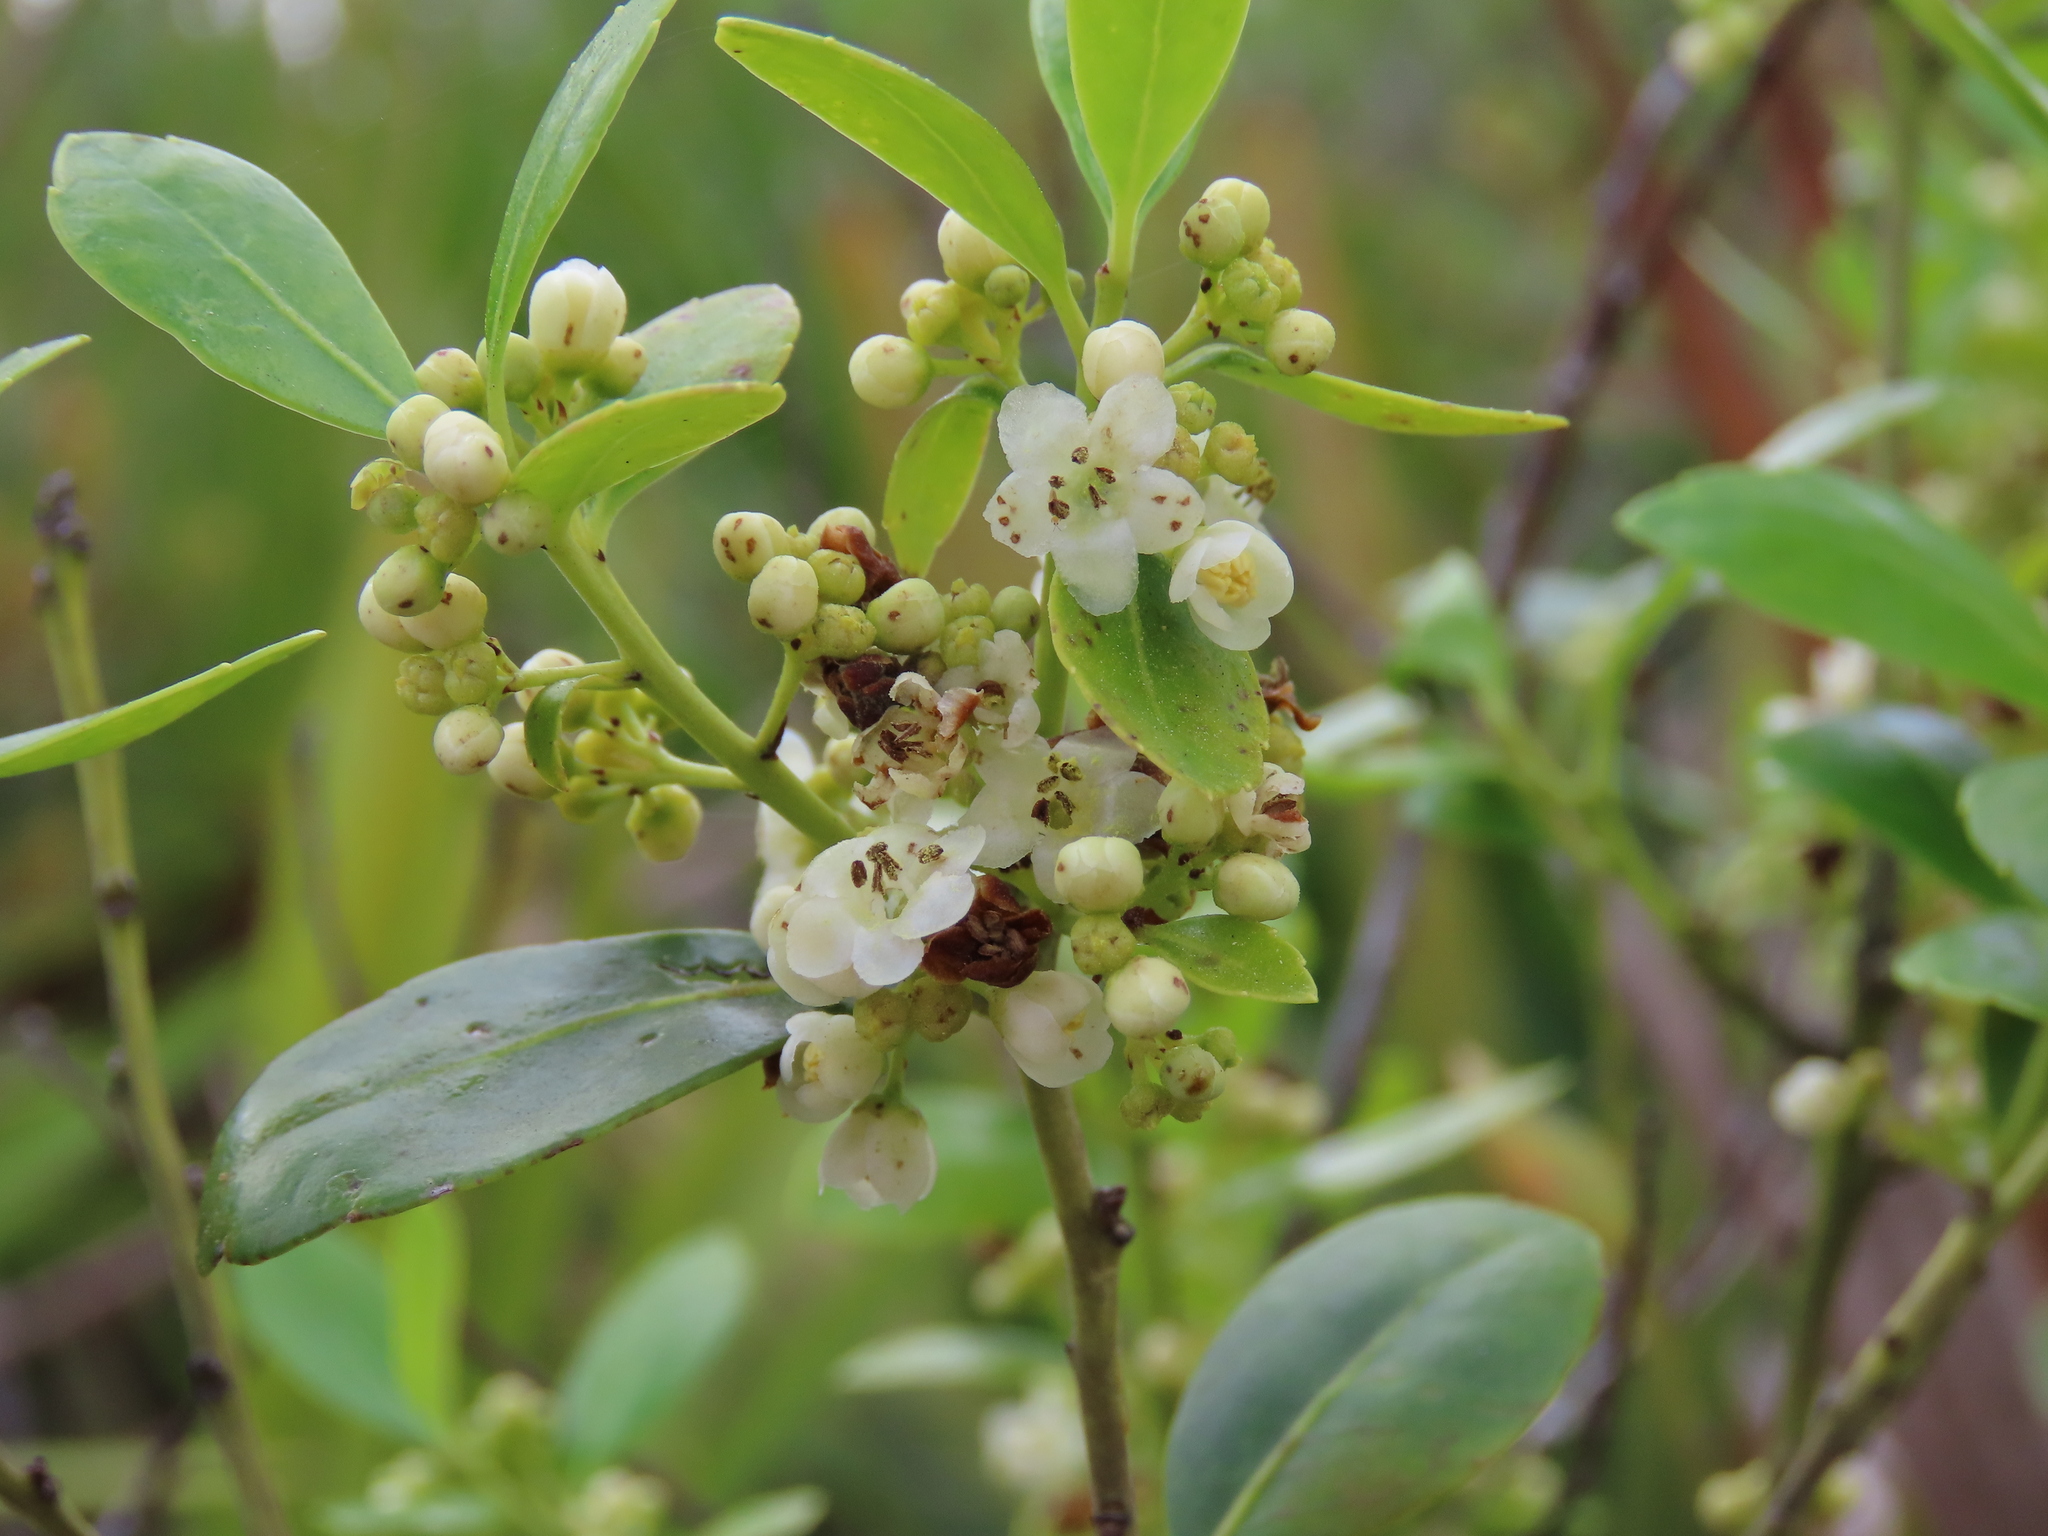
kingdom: Plantae
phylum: Tracheophyta
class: Magnoliopsida
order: Aquifoliales
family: Aquifoliaceae
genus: Ilex
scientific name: Ilex glabra
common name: Bitter gallberry
